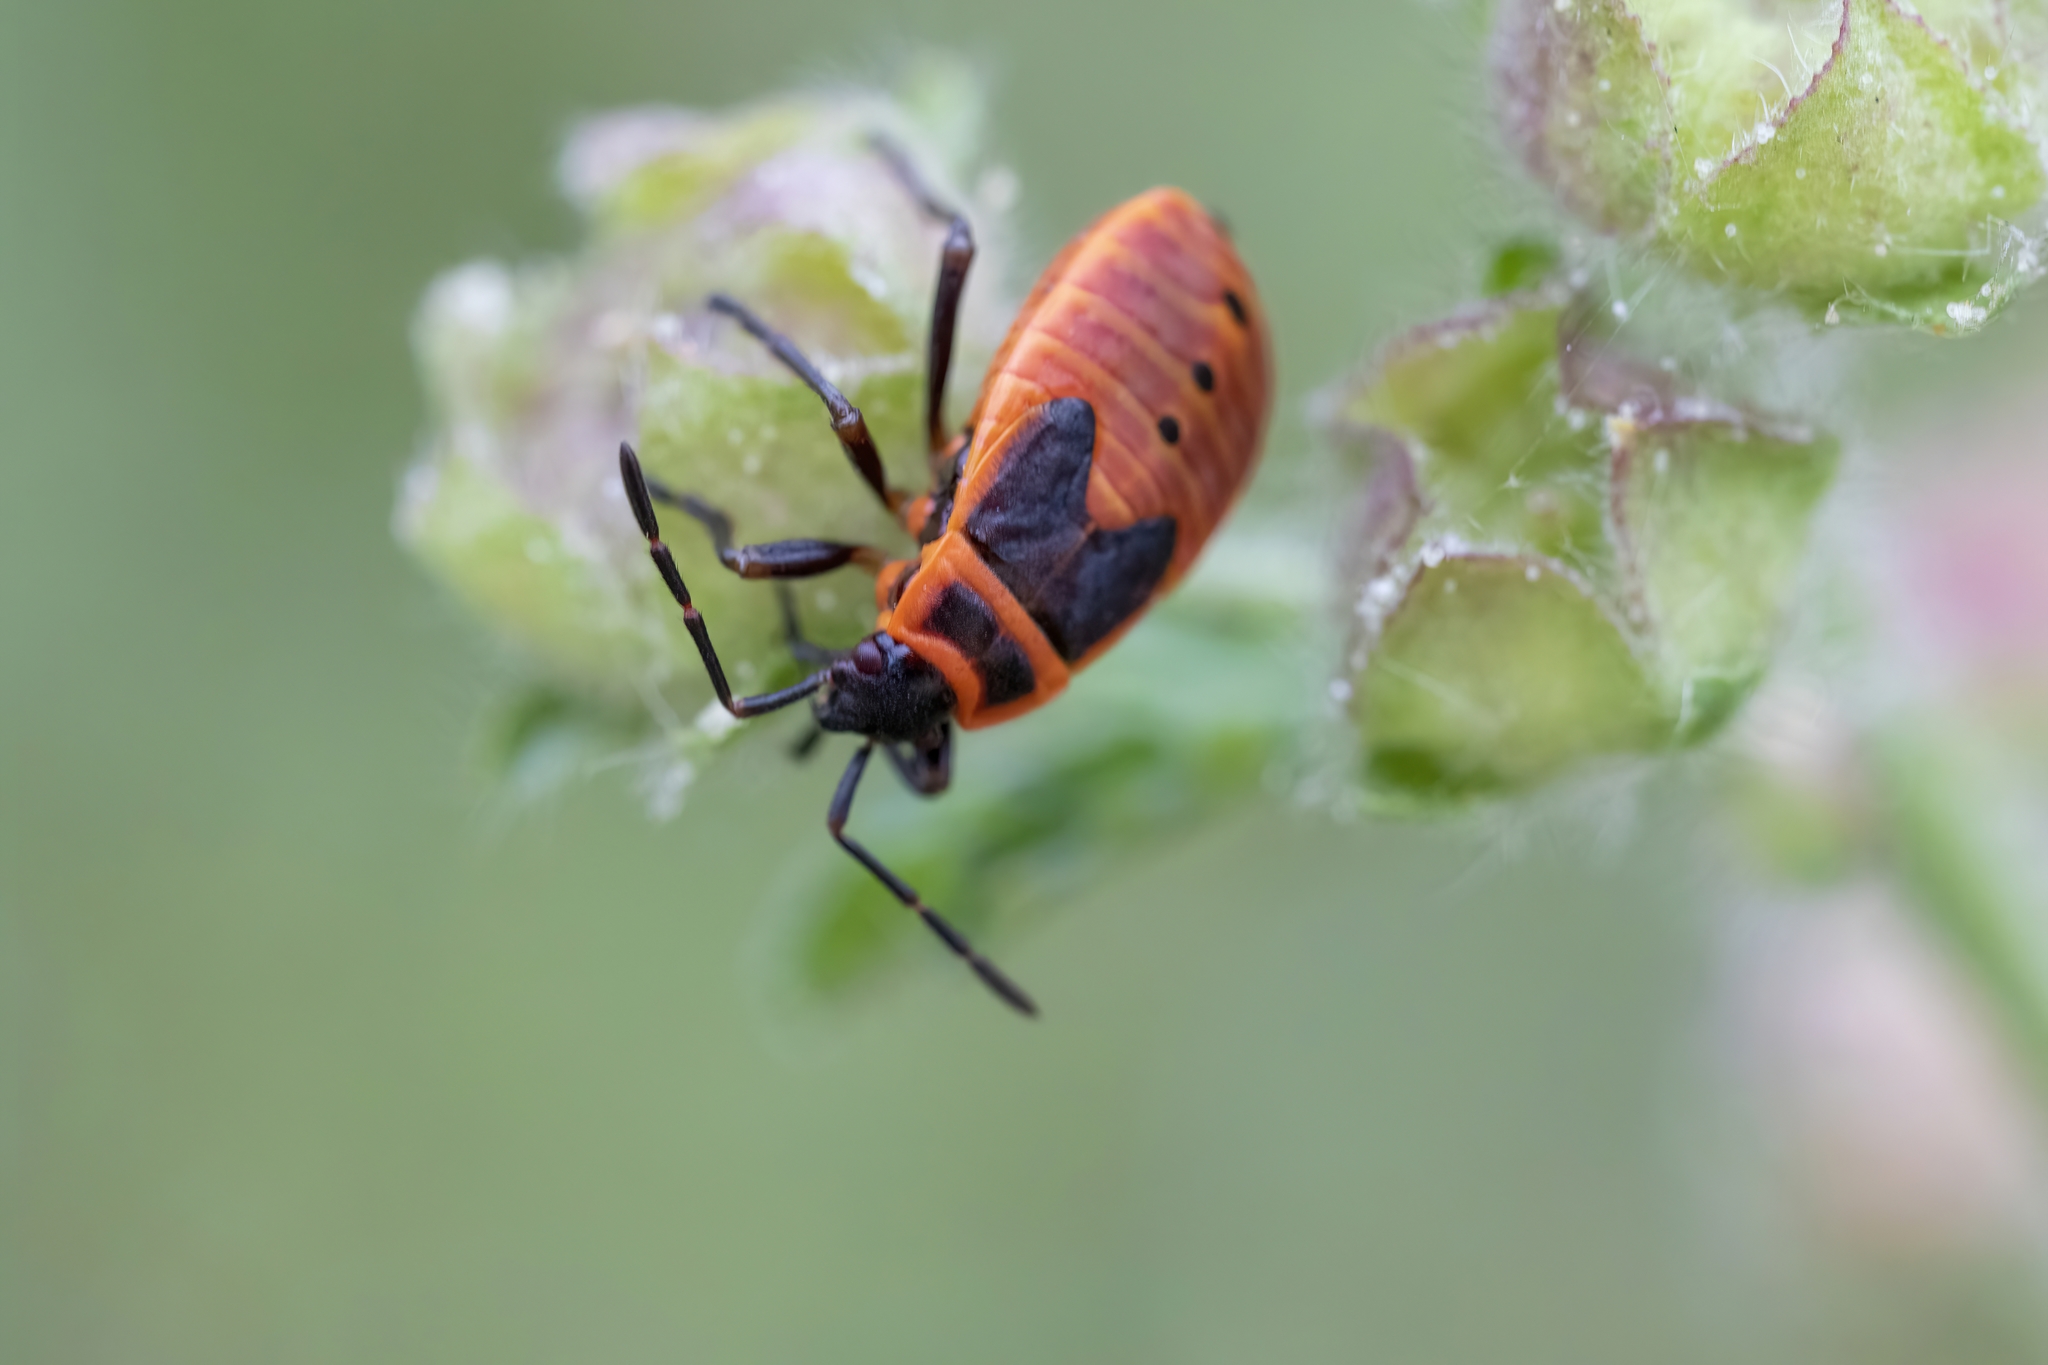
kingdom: Animalia
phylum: Arthropoda
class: Insecta
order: Hemiptera
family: Pyrrhocoridae
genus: Pyrrhocoris
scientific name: Pyrrhocoris apterus
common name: Firebug
